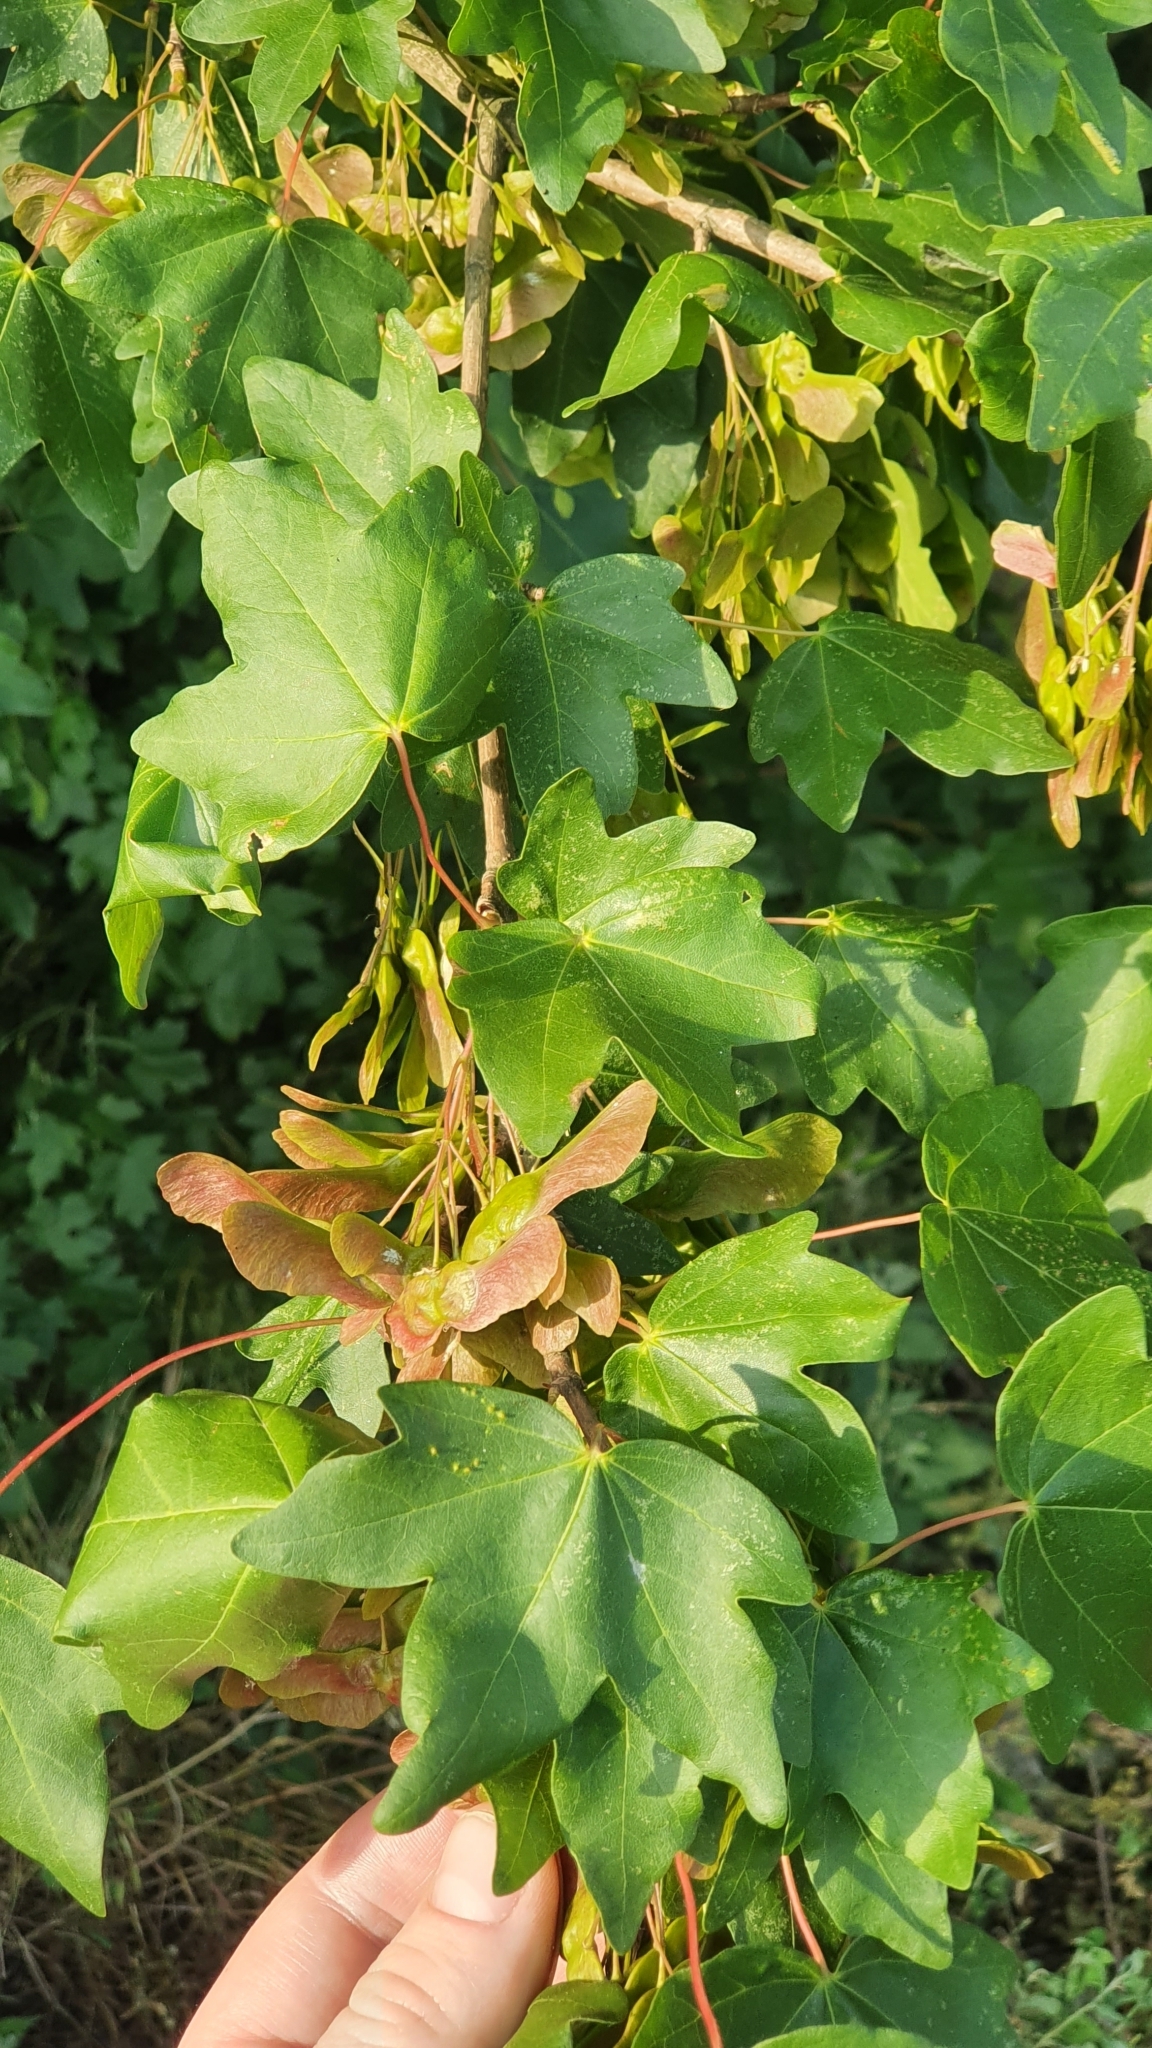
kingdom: Plantae
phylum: Tracheophyta
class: Magnoliopsida
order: Sapindales
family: Sapindaceae
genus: Acer
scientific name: Acer campestre
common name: Field maple
